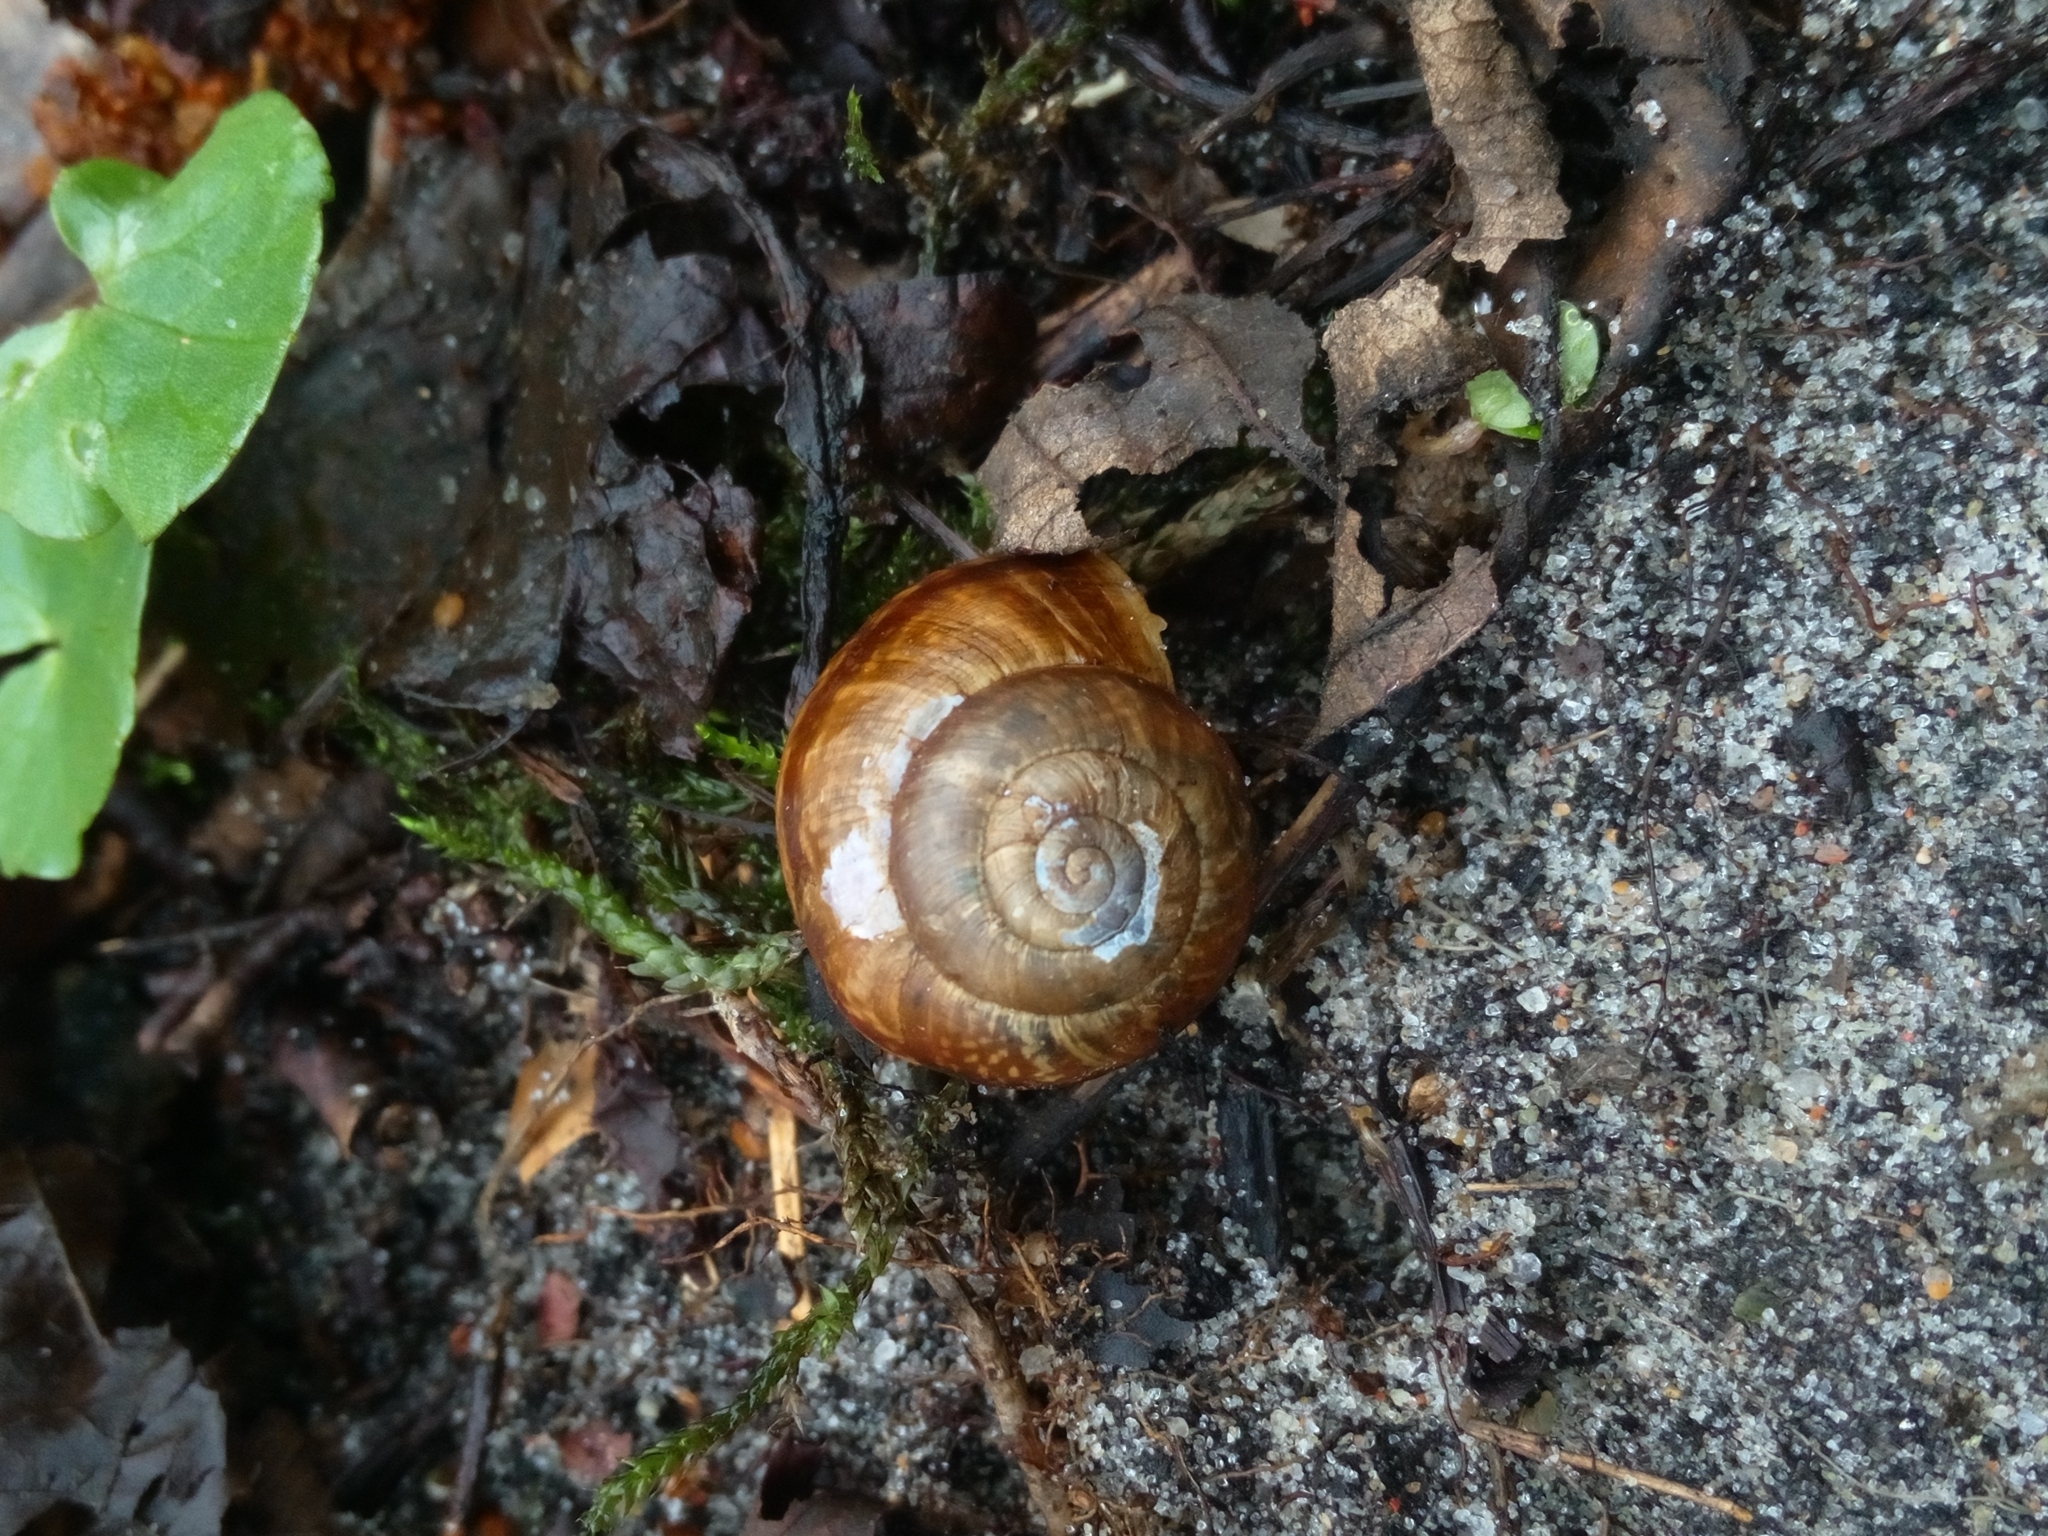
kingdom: Animalia
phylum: Mollusca
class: Gastropoda
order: Stylommatophora
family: Helicidae
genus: Arianta
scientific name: Arianta arbustorum
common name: Copse snail
